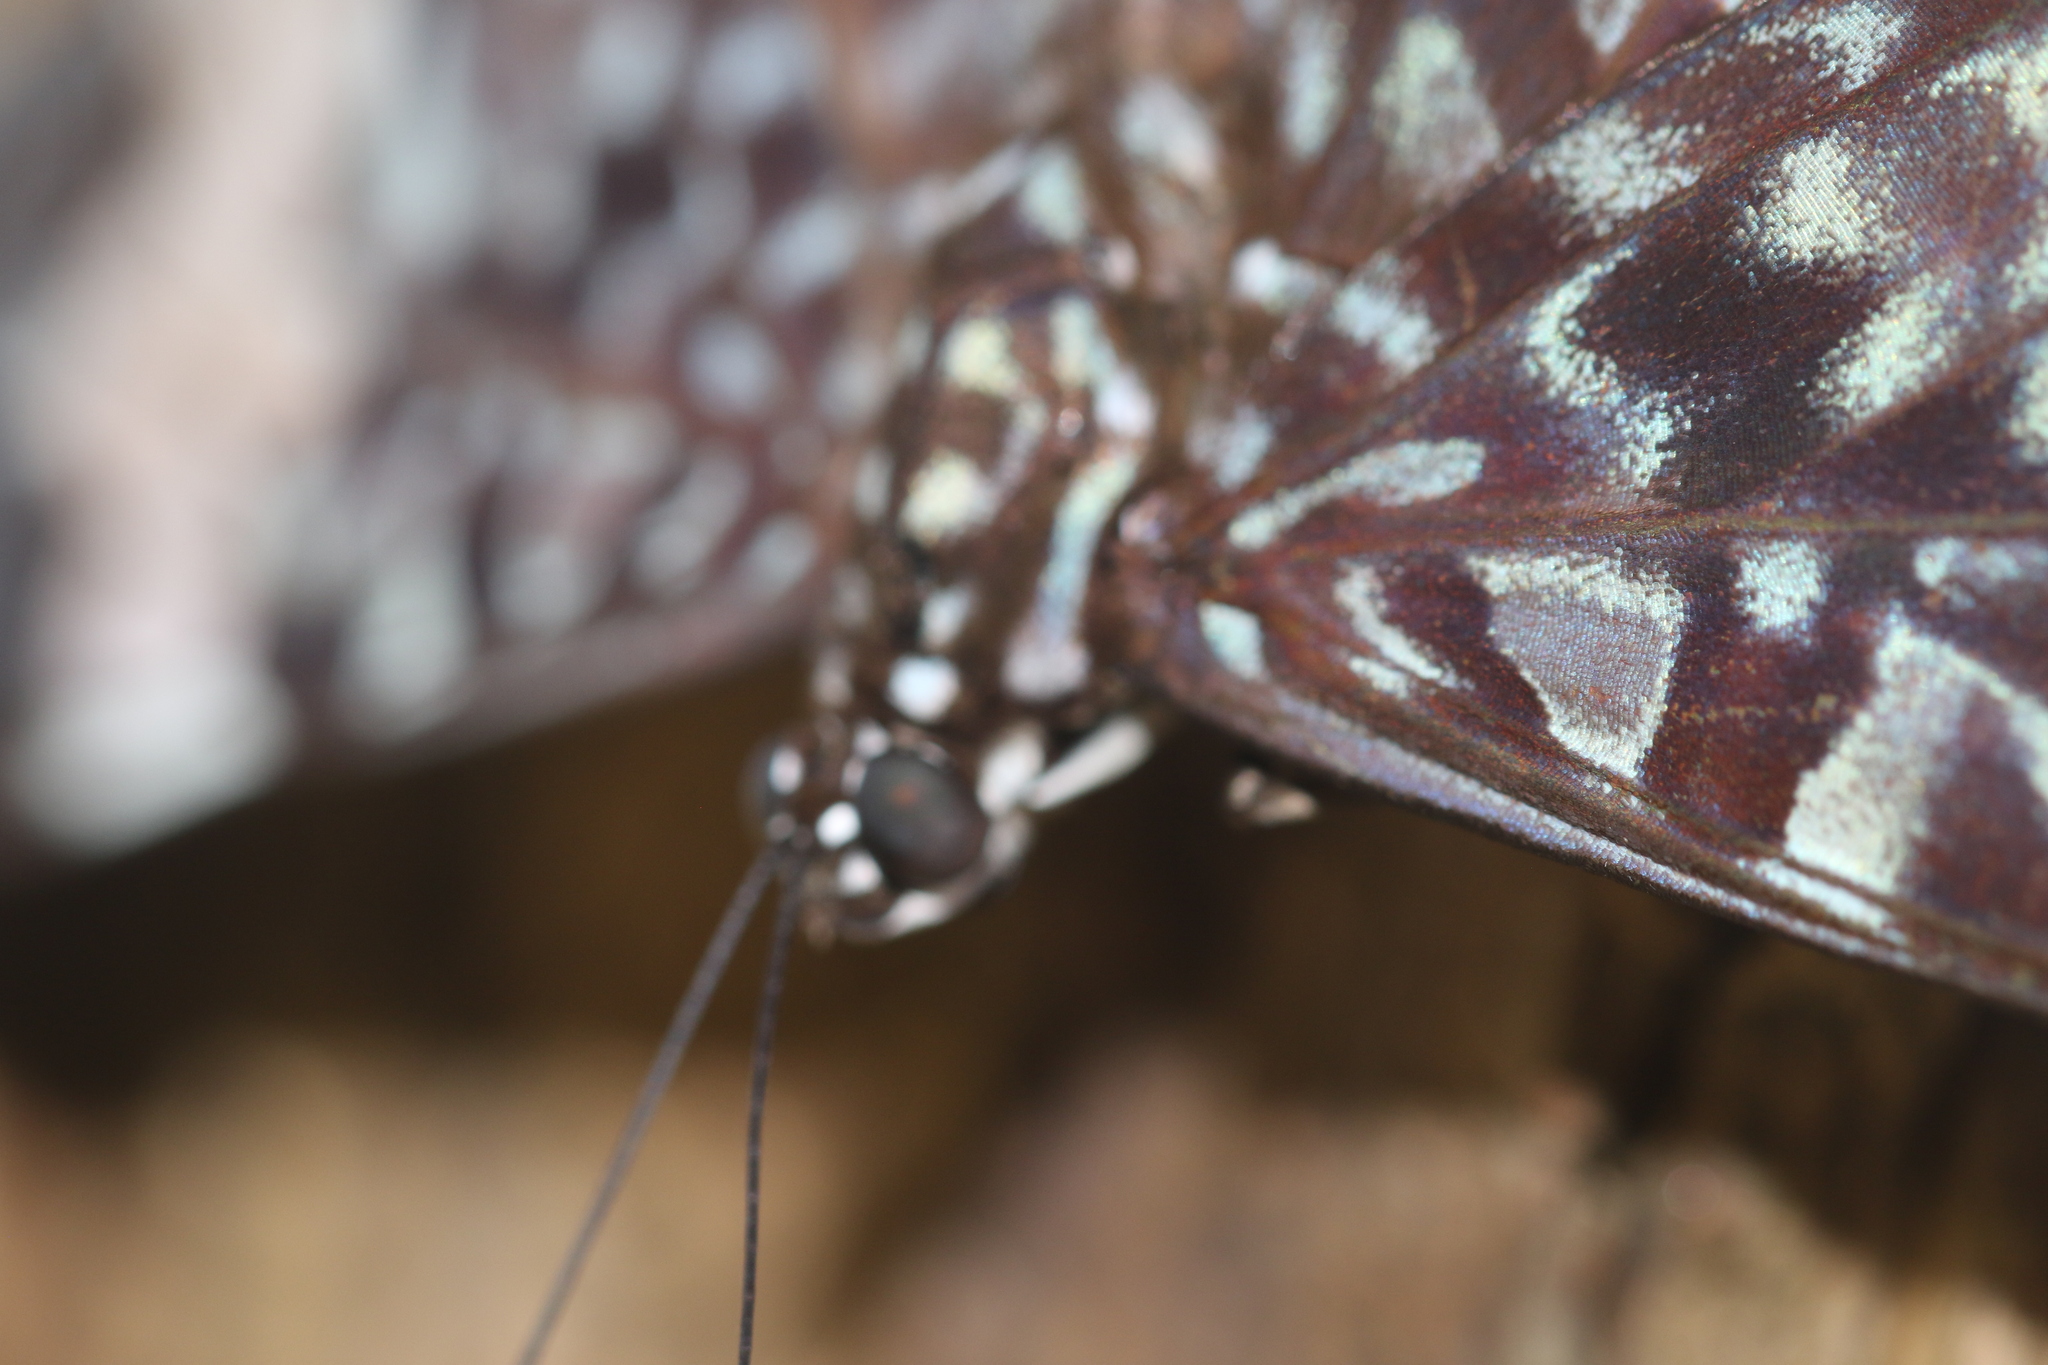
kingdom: Animalia
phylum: Arthropoda
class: Insecta
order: Lepidoptera
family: Nymphalidae
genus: Hamadryas
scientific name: Hamadryas amphinome
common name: Red cracker
